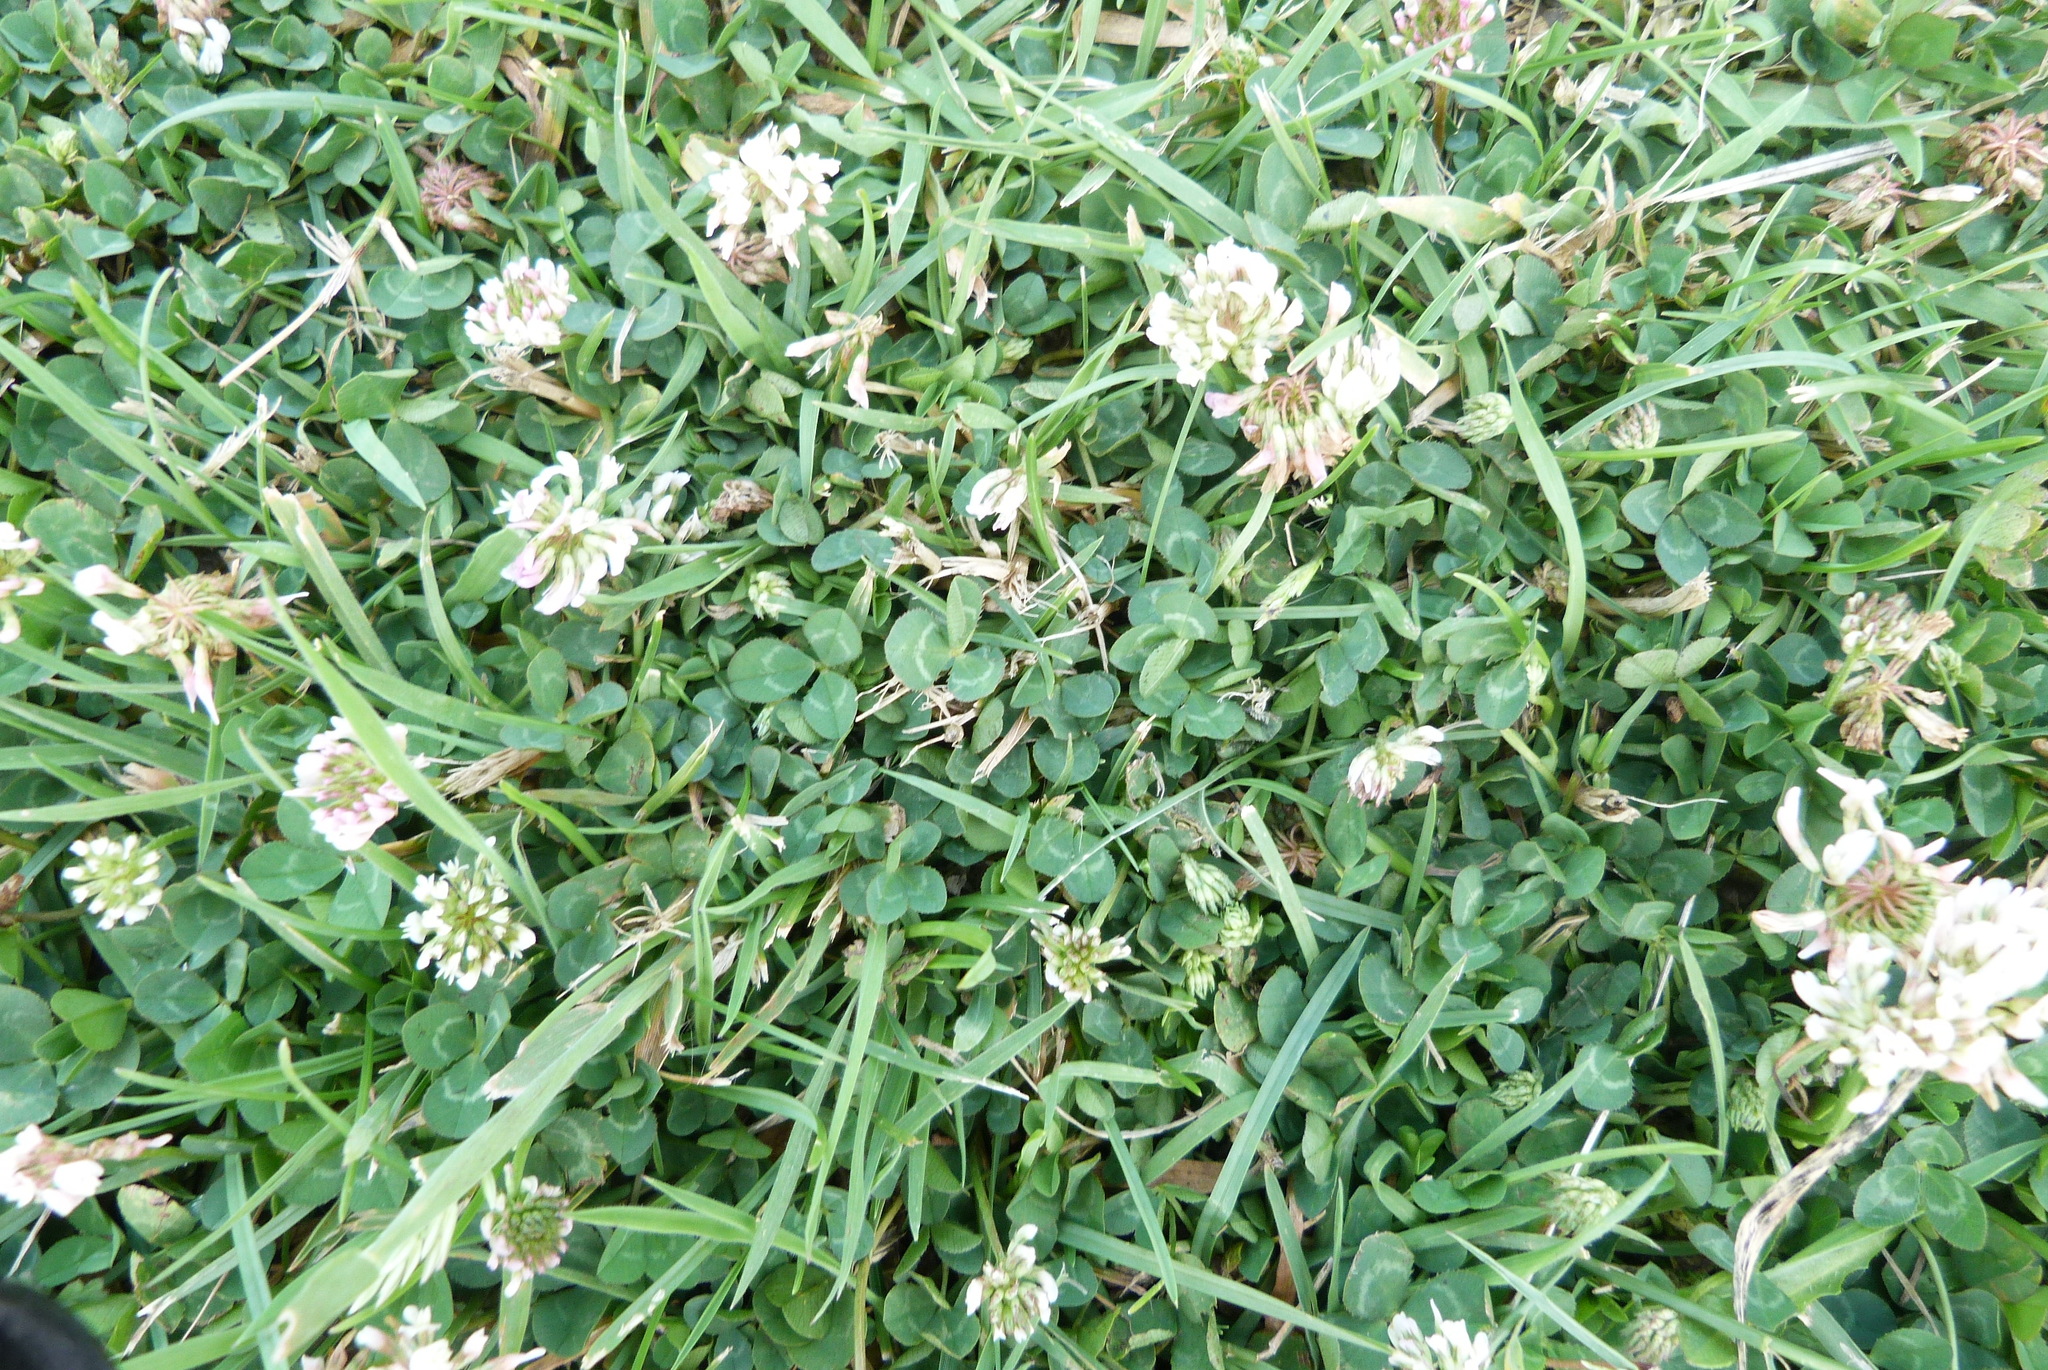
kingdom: Plantae
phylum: Tracheophyta
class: Magnoliopsida
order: Fabales
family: Fabaceae
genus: Trifolium
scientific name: Trifolium repens
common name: White clover
